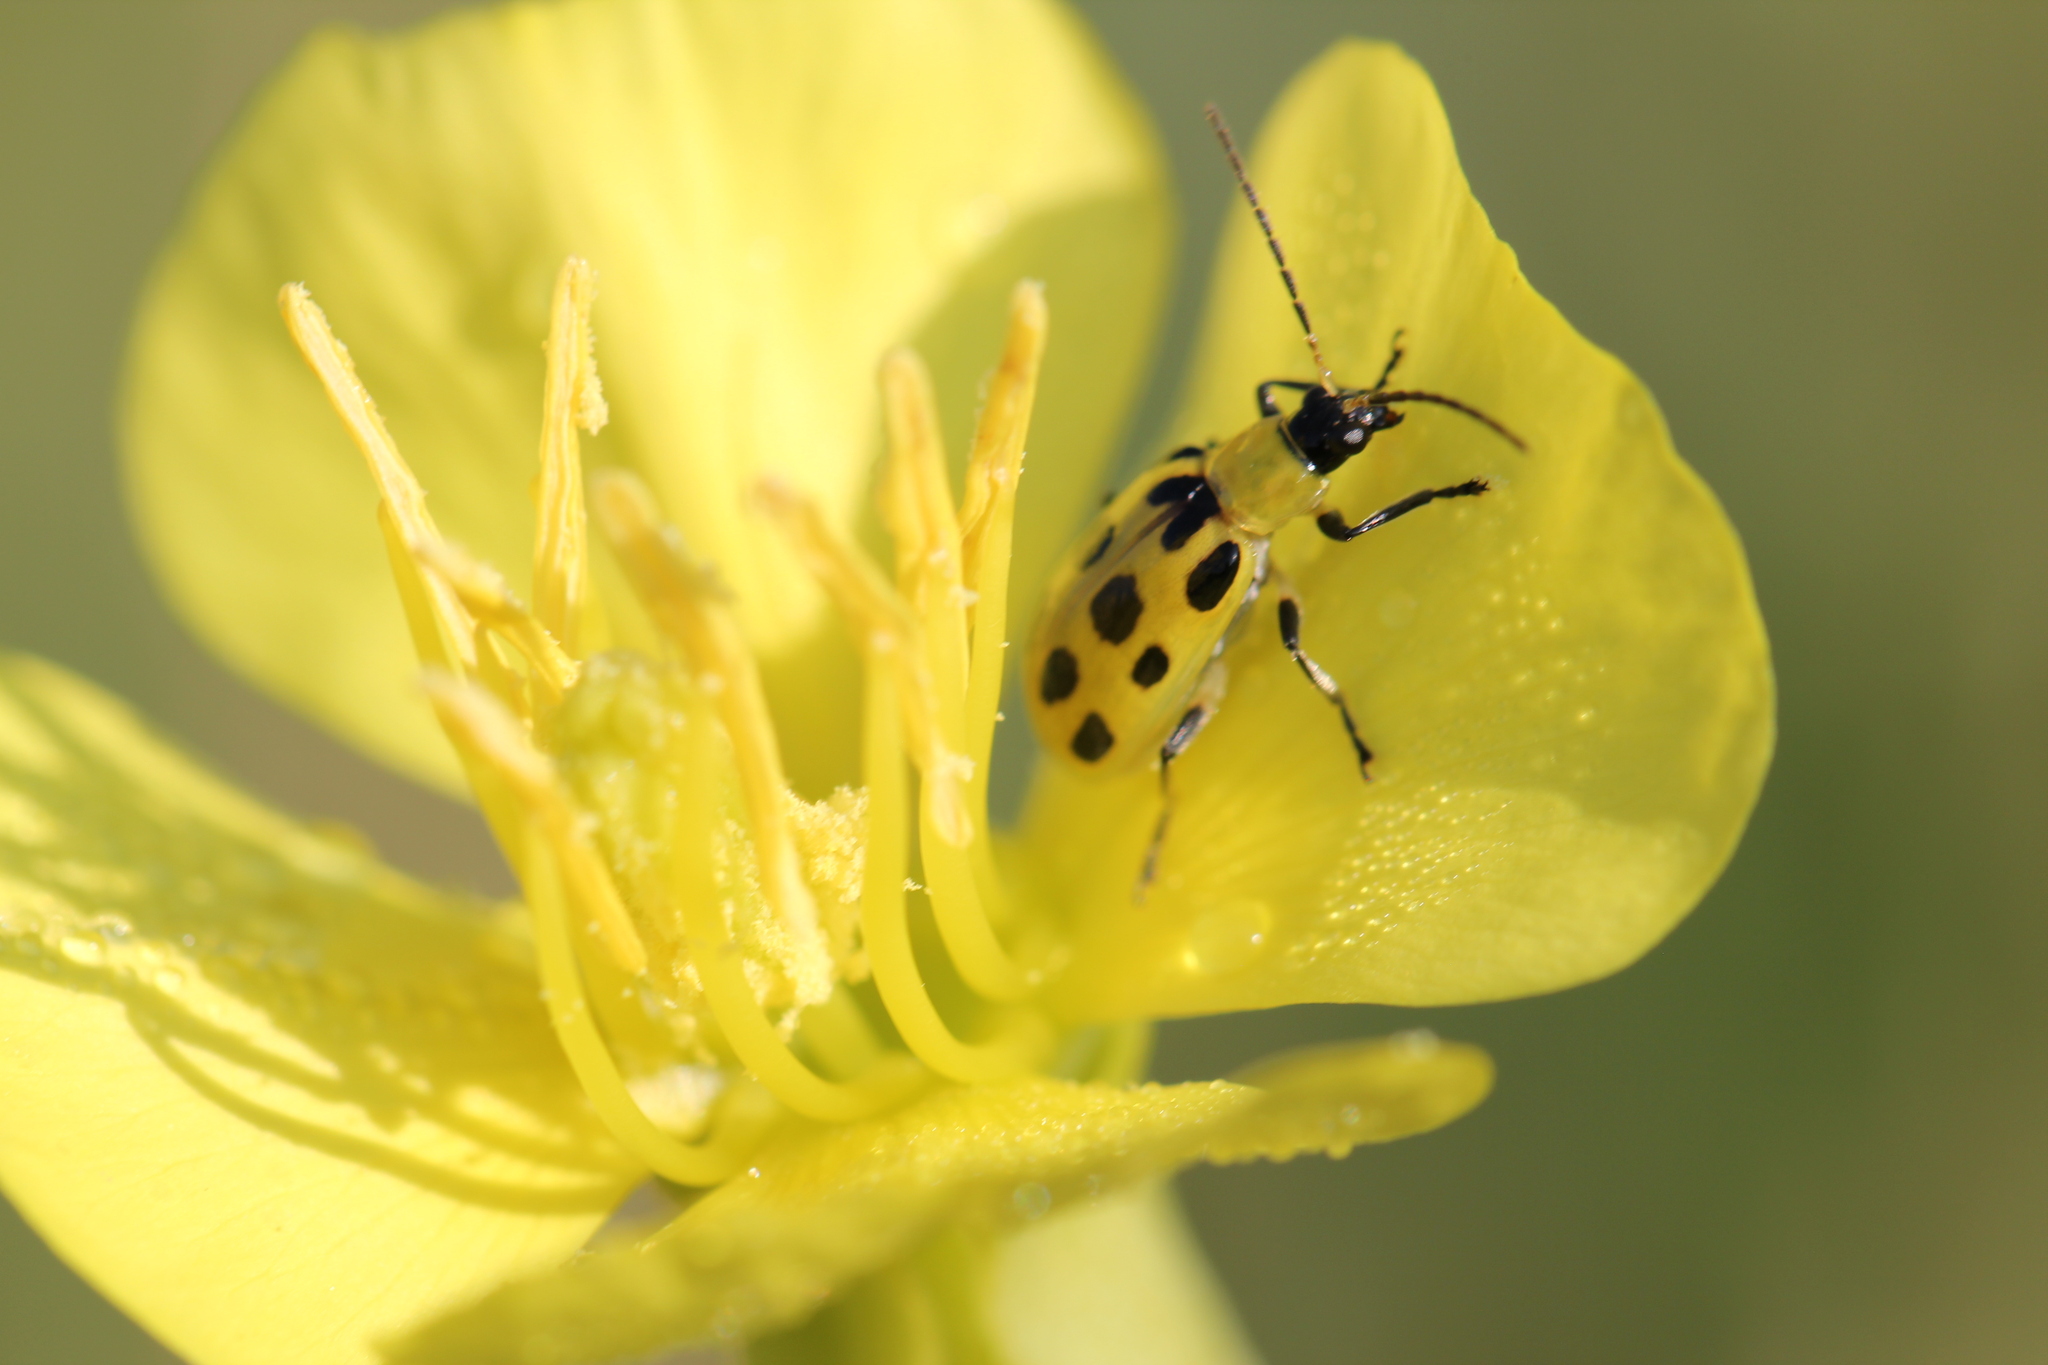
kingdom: Animalia
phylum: Arthropoda
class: Insecta
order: Coleoptera
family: Chrysomelidae
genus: Diabrotica
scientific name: Diabrotica undecimpunctata
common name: Spotted cucumber beetle
